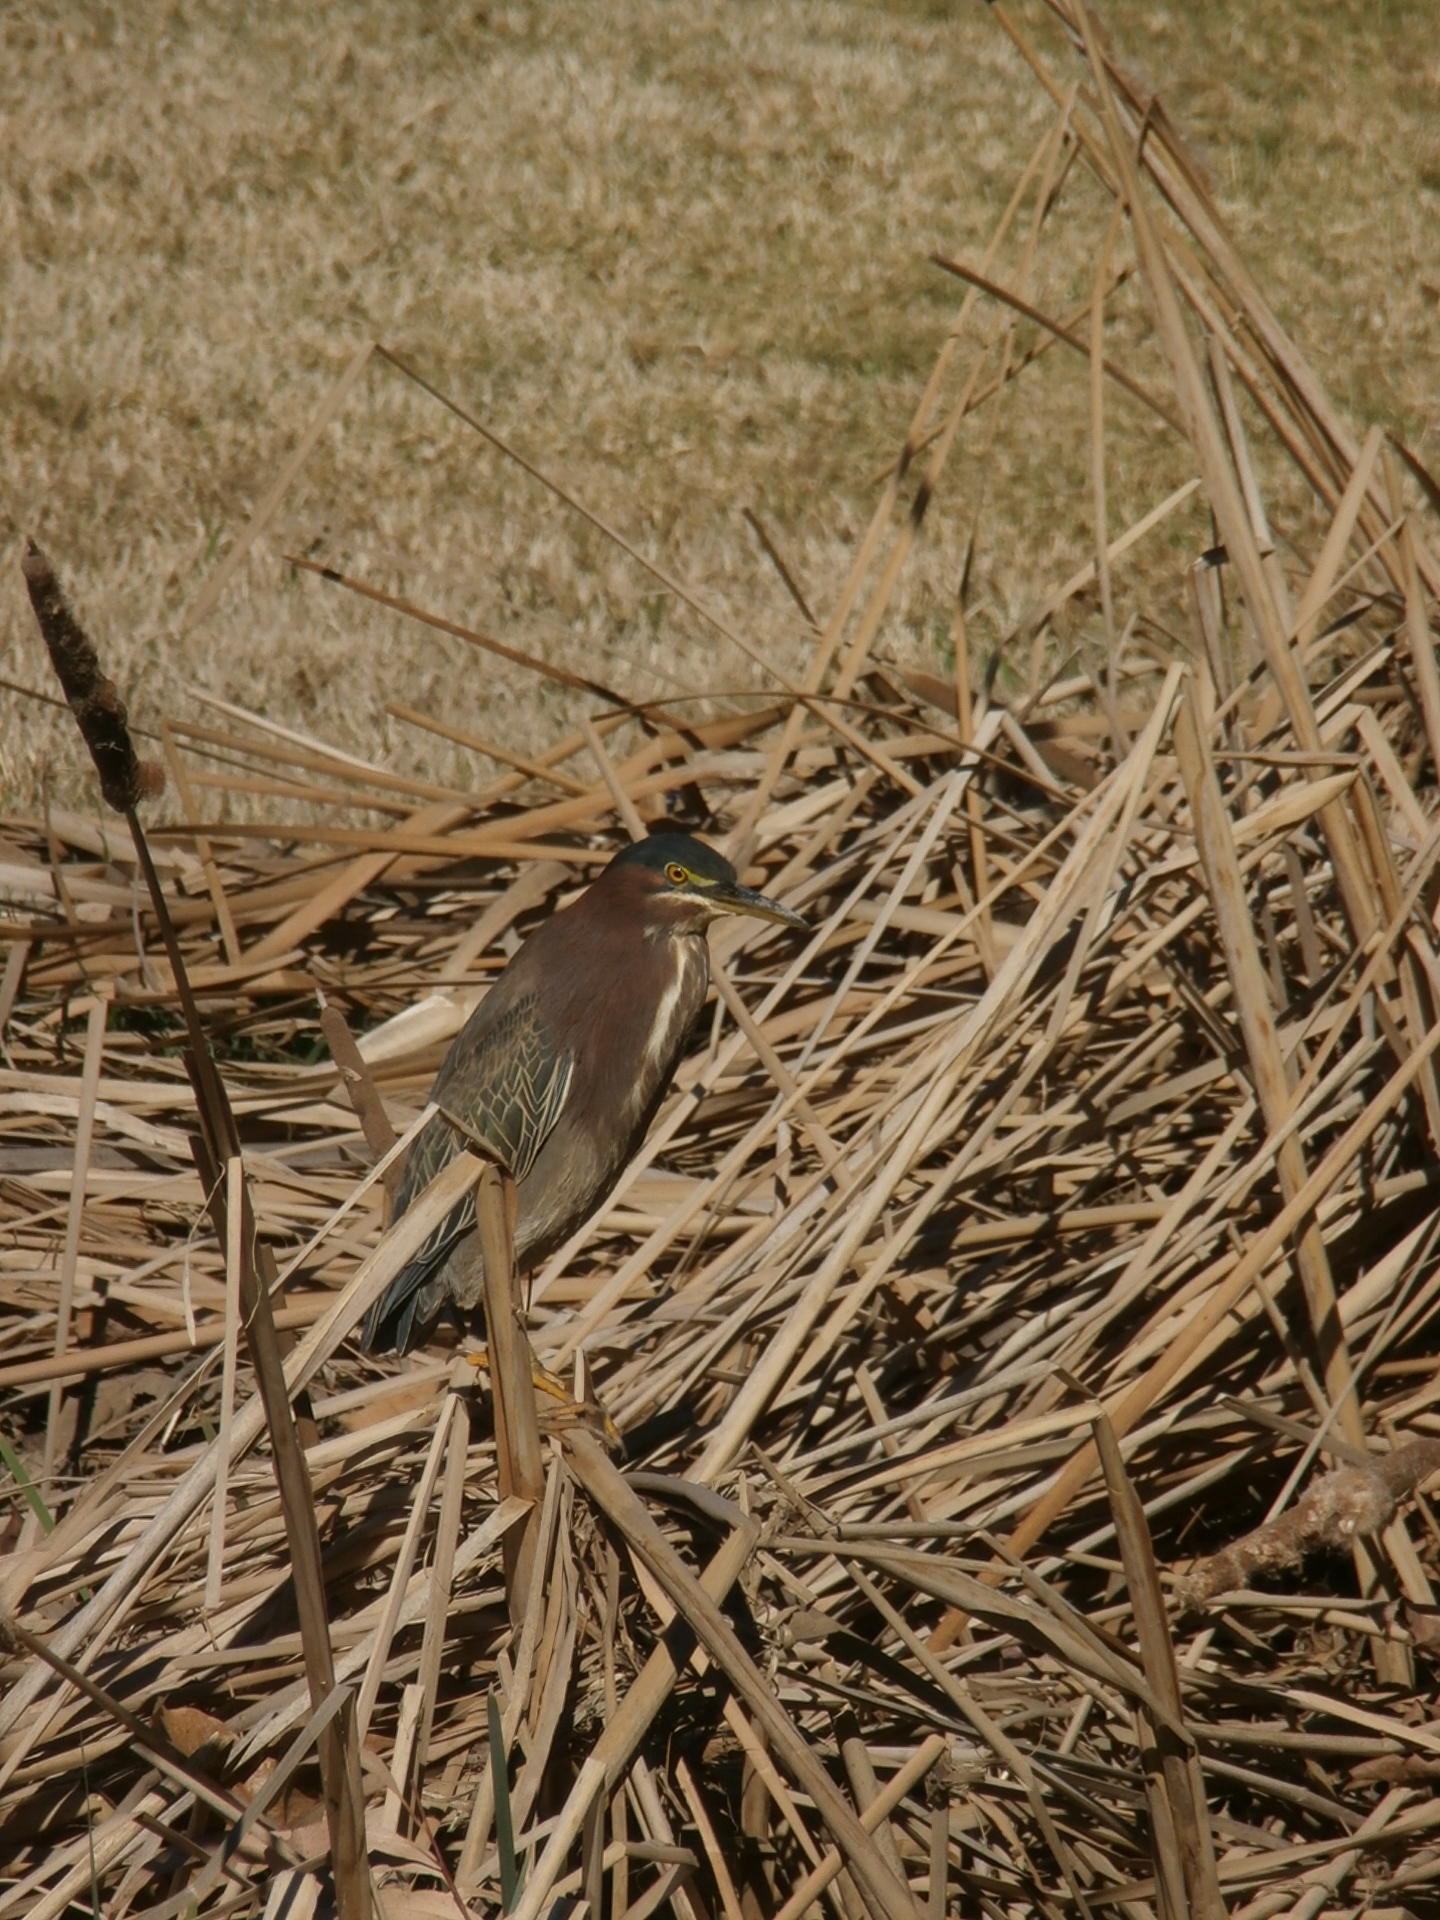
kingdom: Animalia
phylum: Chordata
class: Aves
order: Pelecaniformes
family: Ardeidae
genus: Butorides
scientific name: Butorides virescens
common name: Green heron
